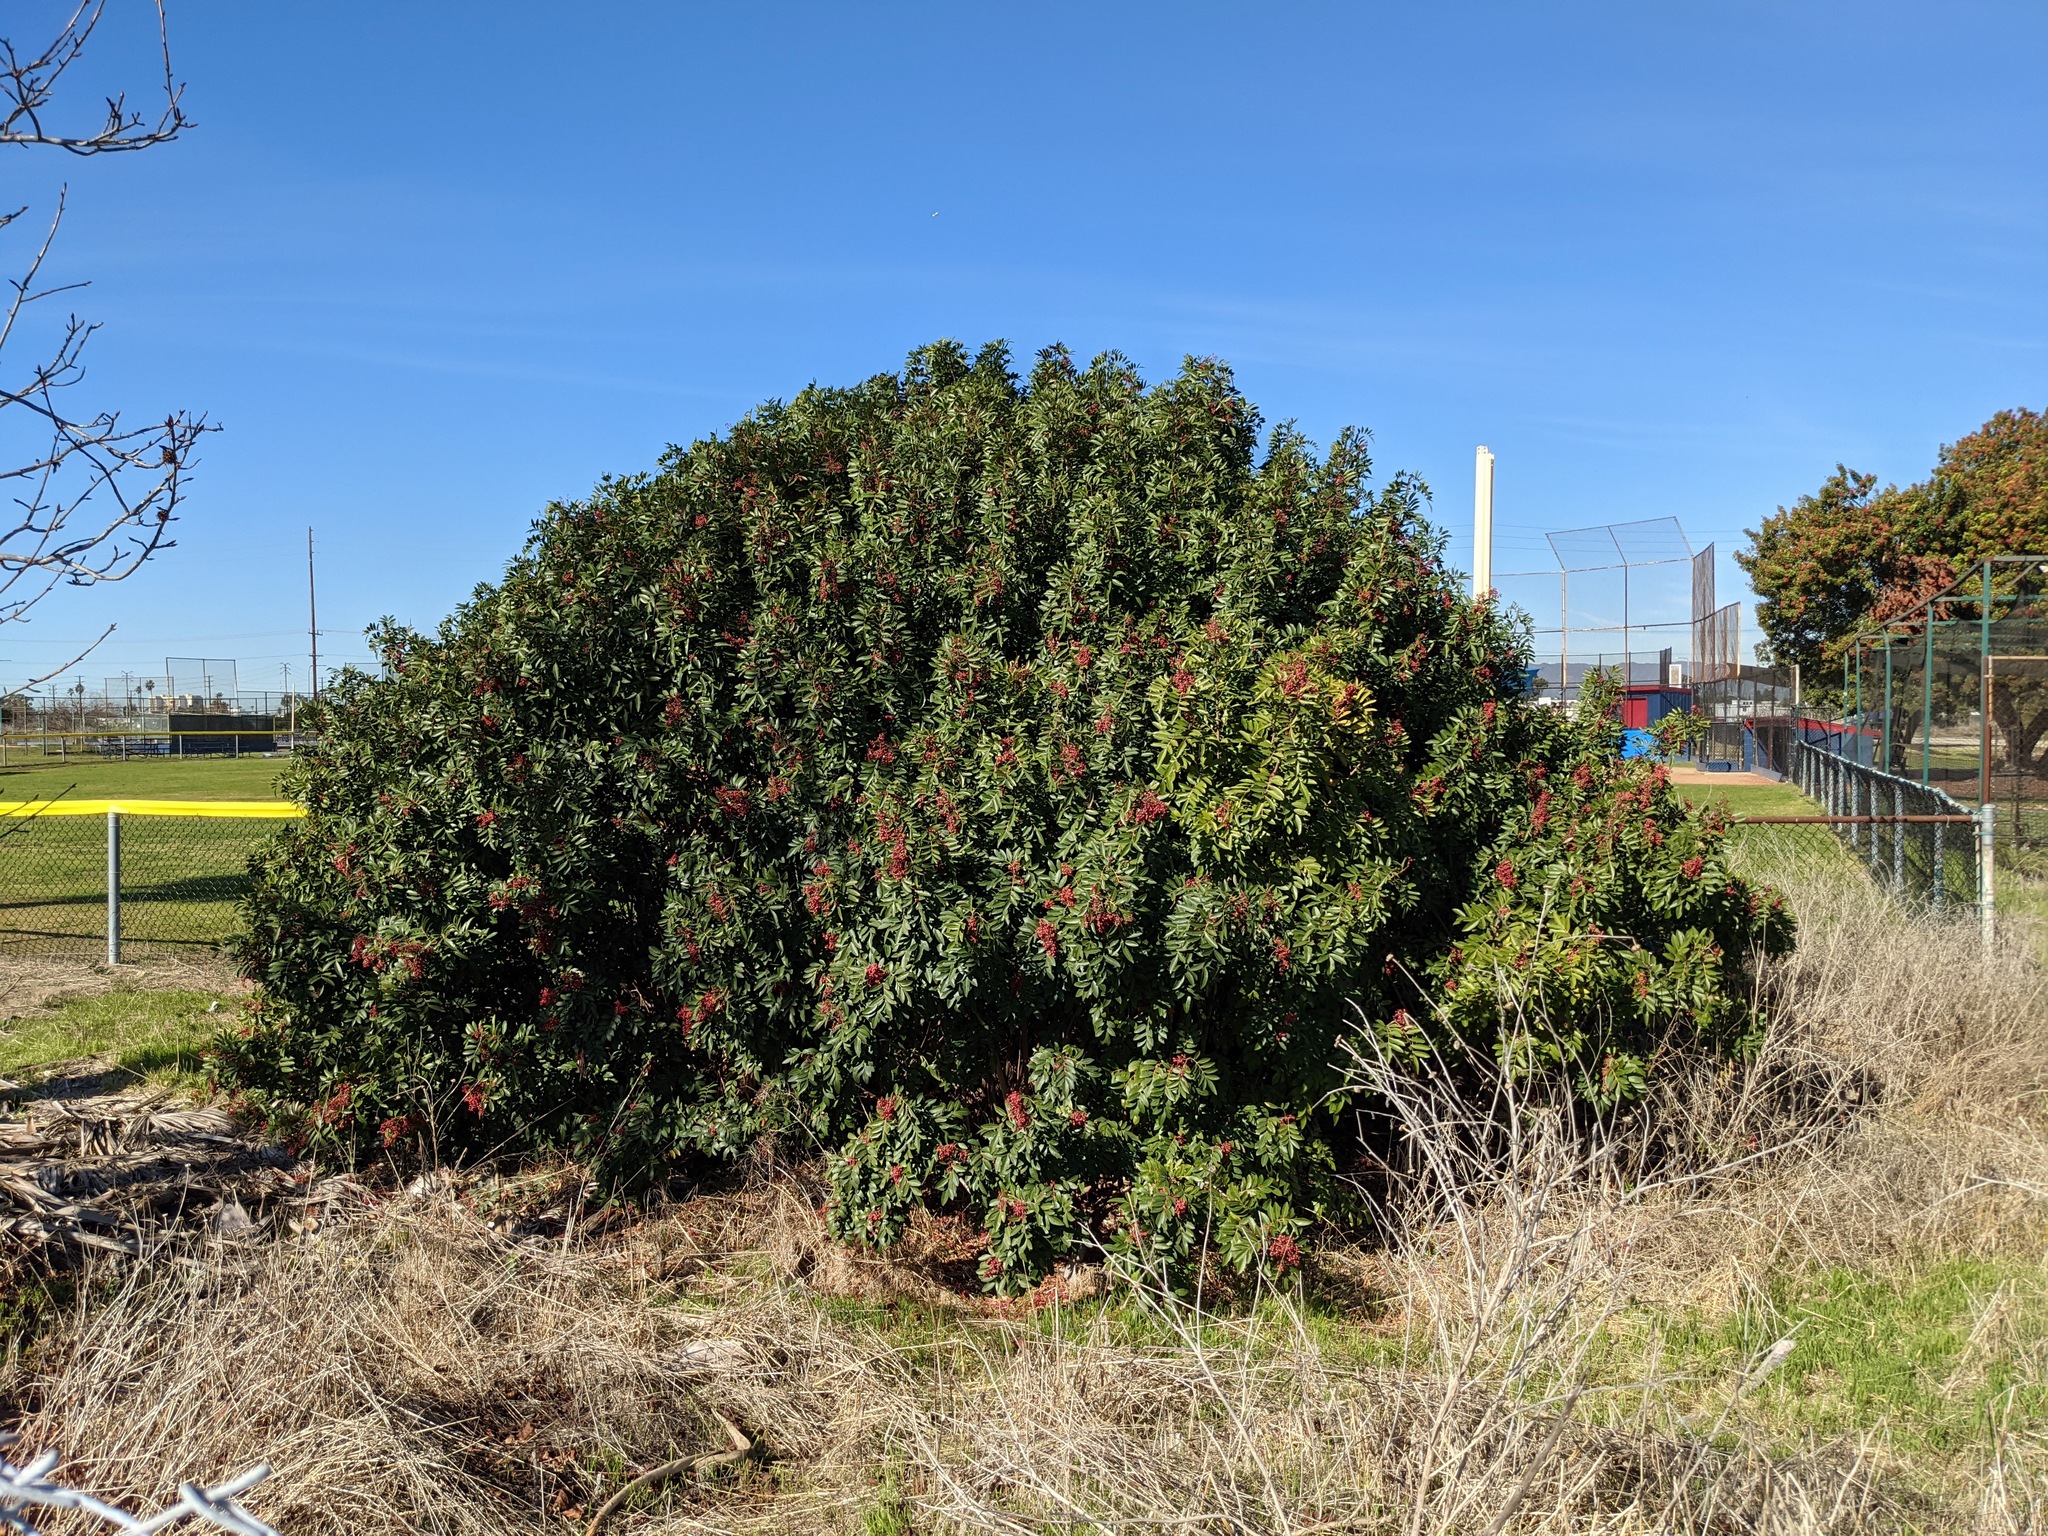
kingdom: Plantae
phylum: Tracheophyta
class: Magnoliopsida
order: Sapindales
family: Anacardiaceae
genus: Schinus
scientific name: Schinus terebinthifolia
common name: Brazilian peppertree
